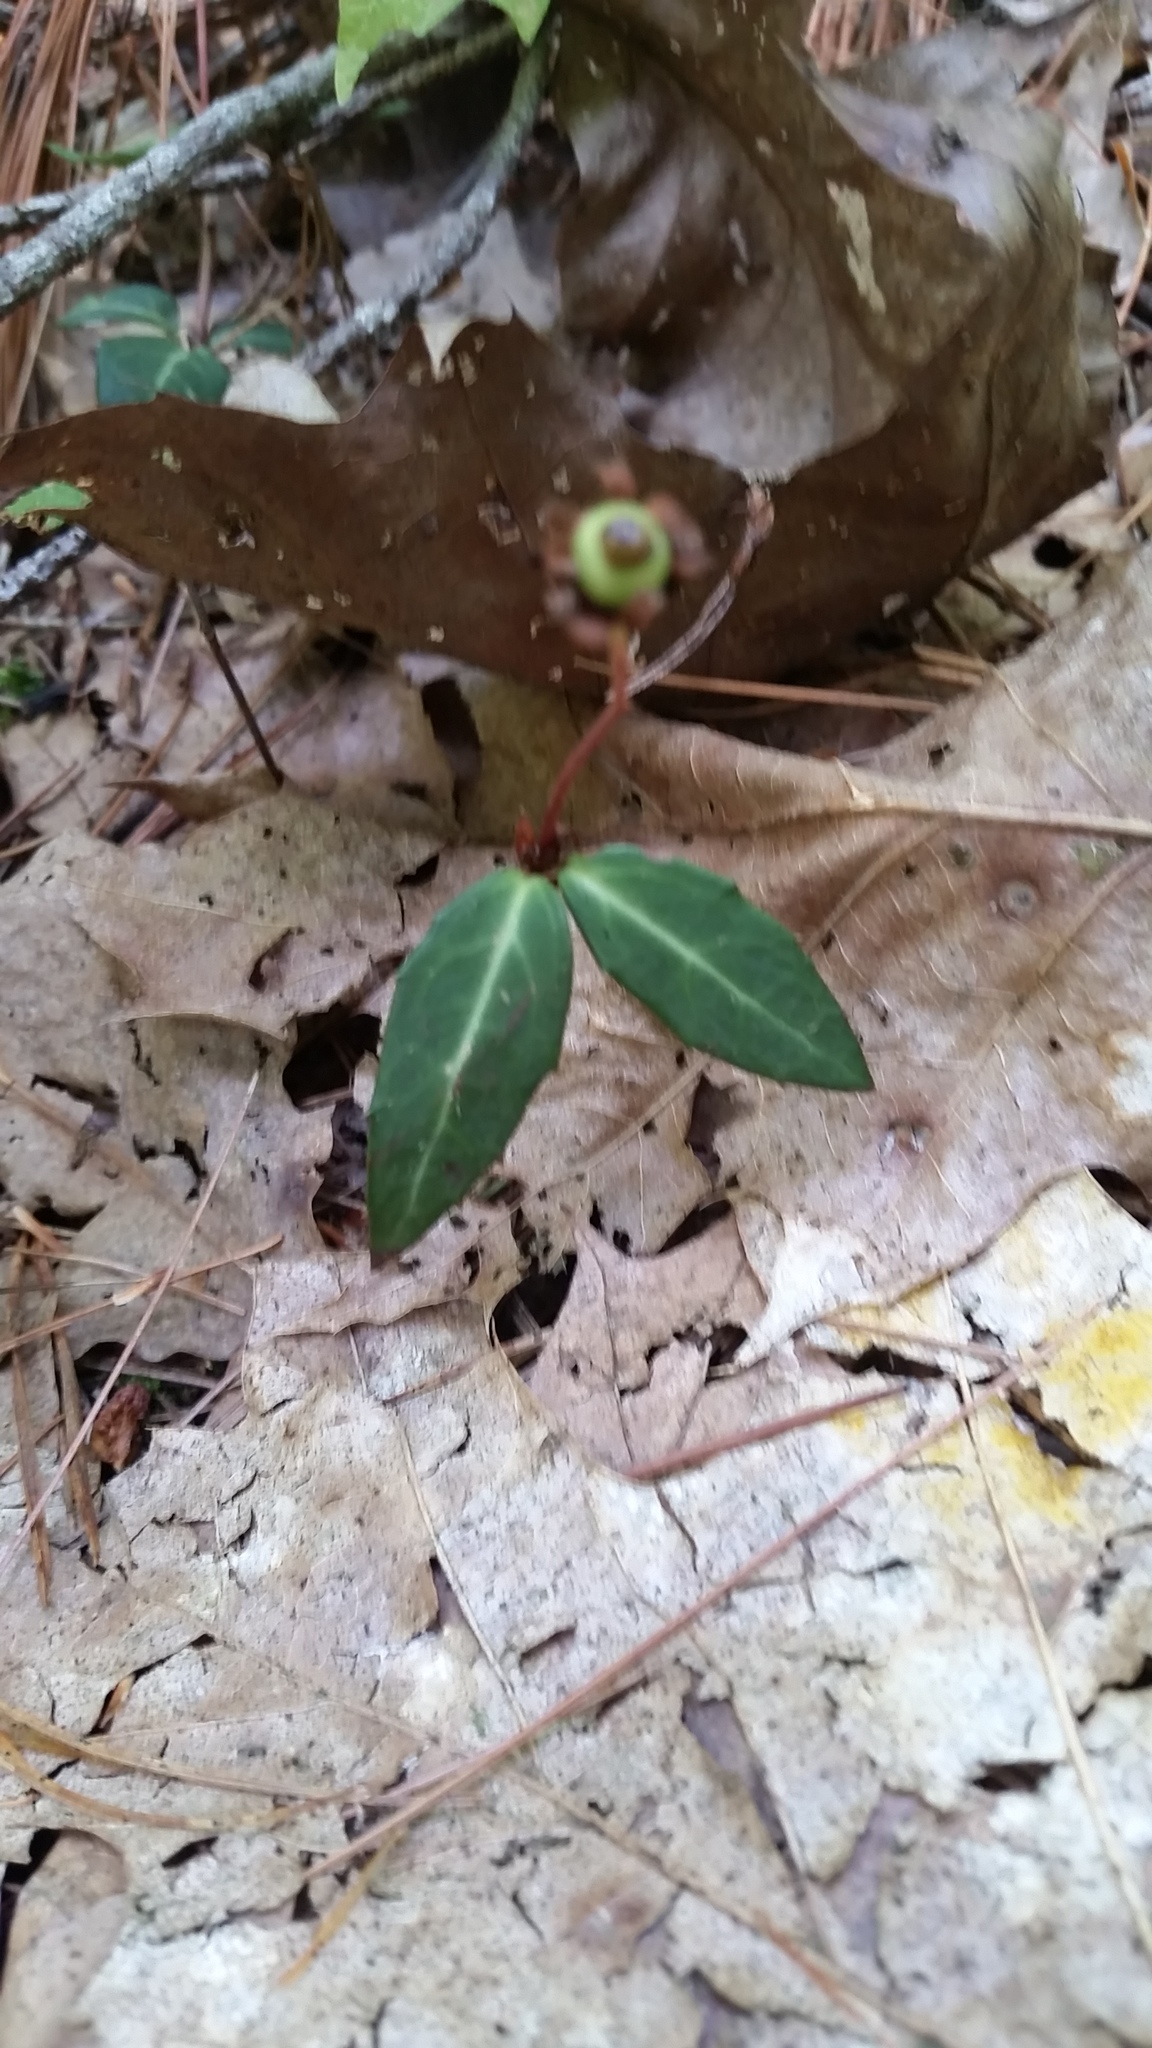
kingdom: Plantae
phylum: Tracheophyta
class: Magnoliopsida
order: Ericales
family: Ericaceae
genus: Chimaphila
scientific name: Chimaphila maculata
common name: Spotted pipsissewa
